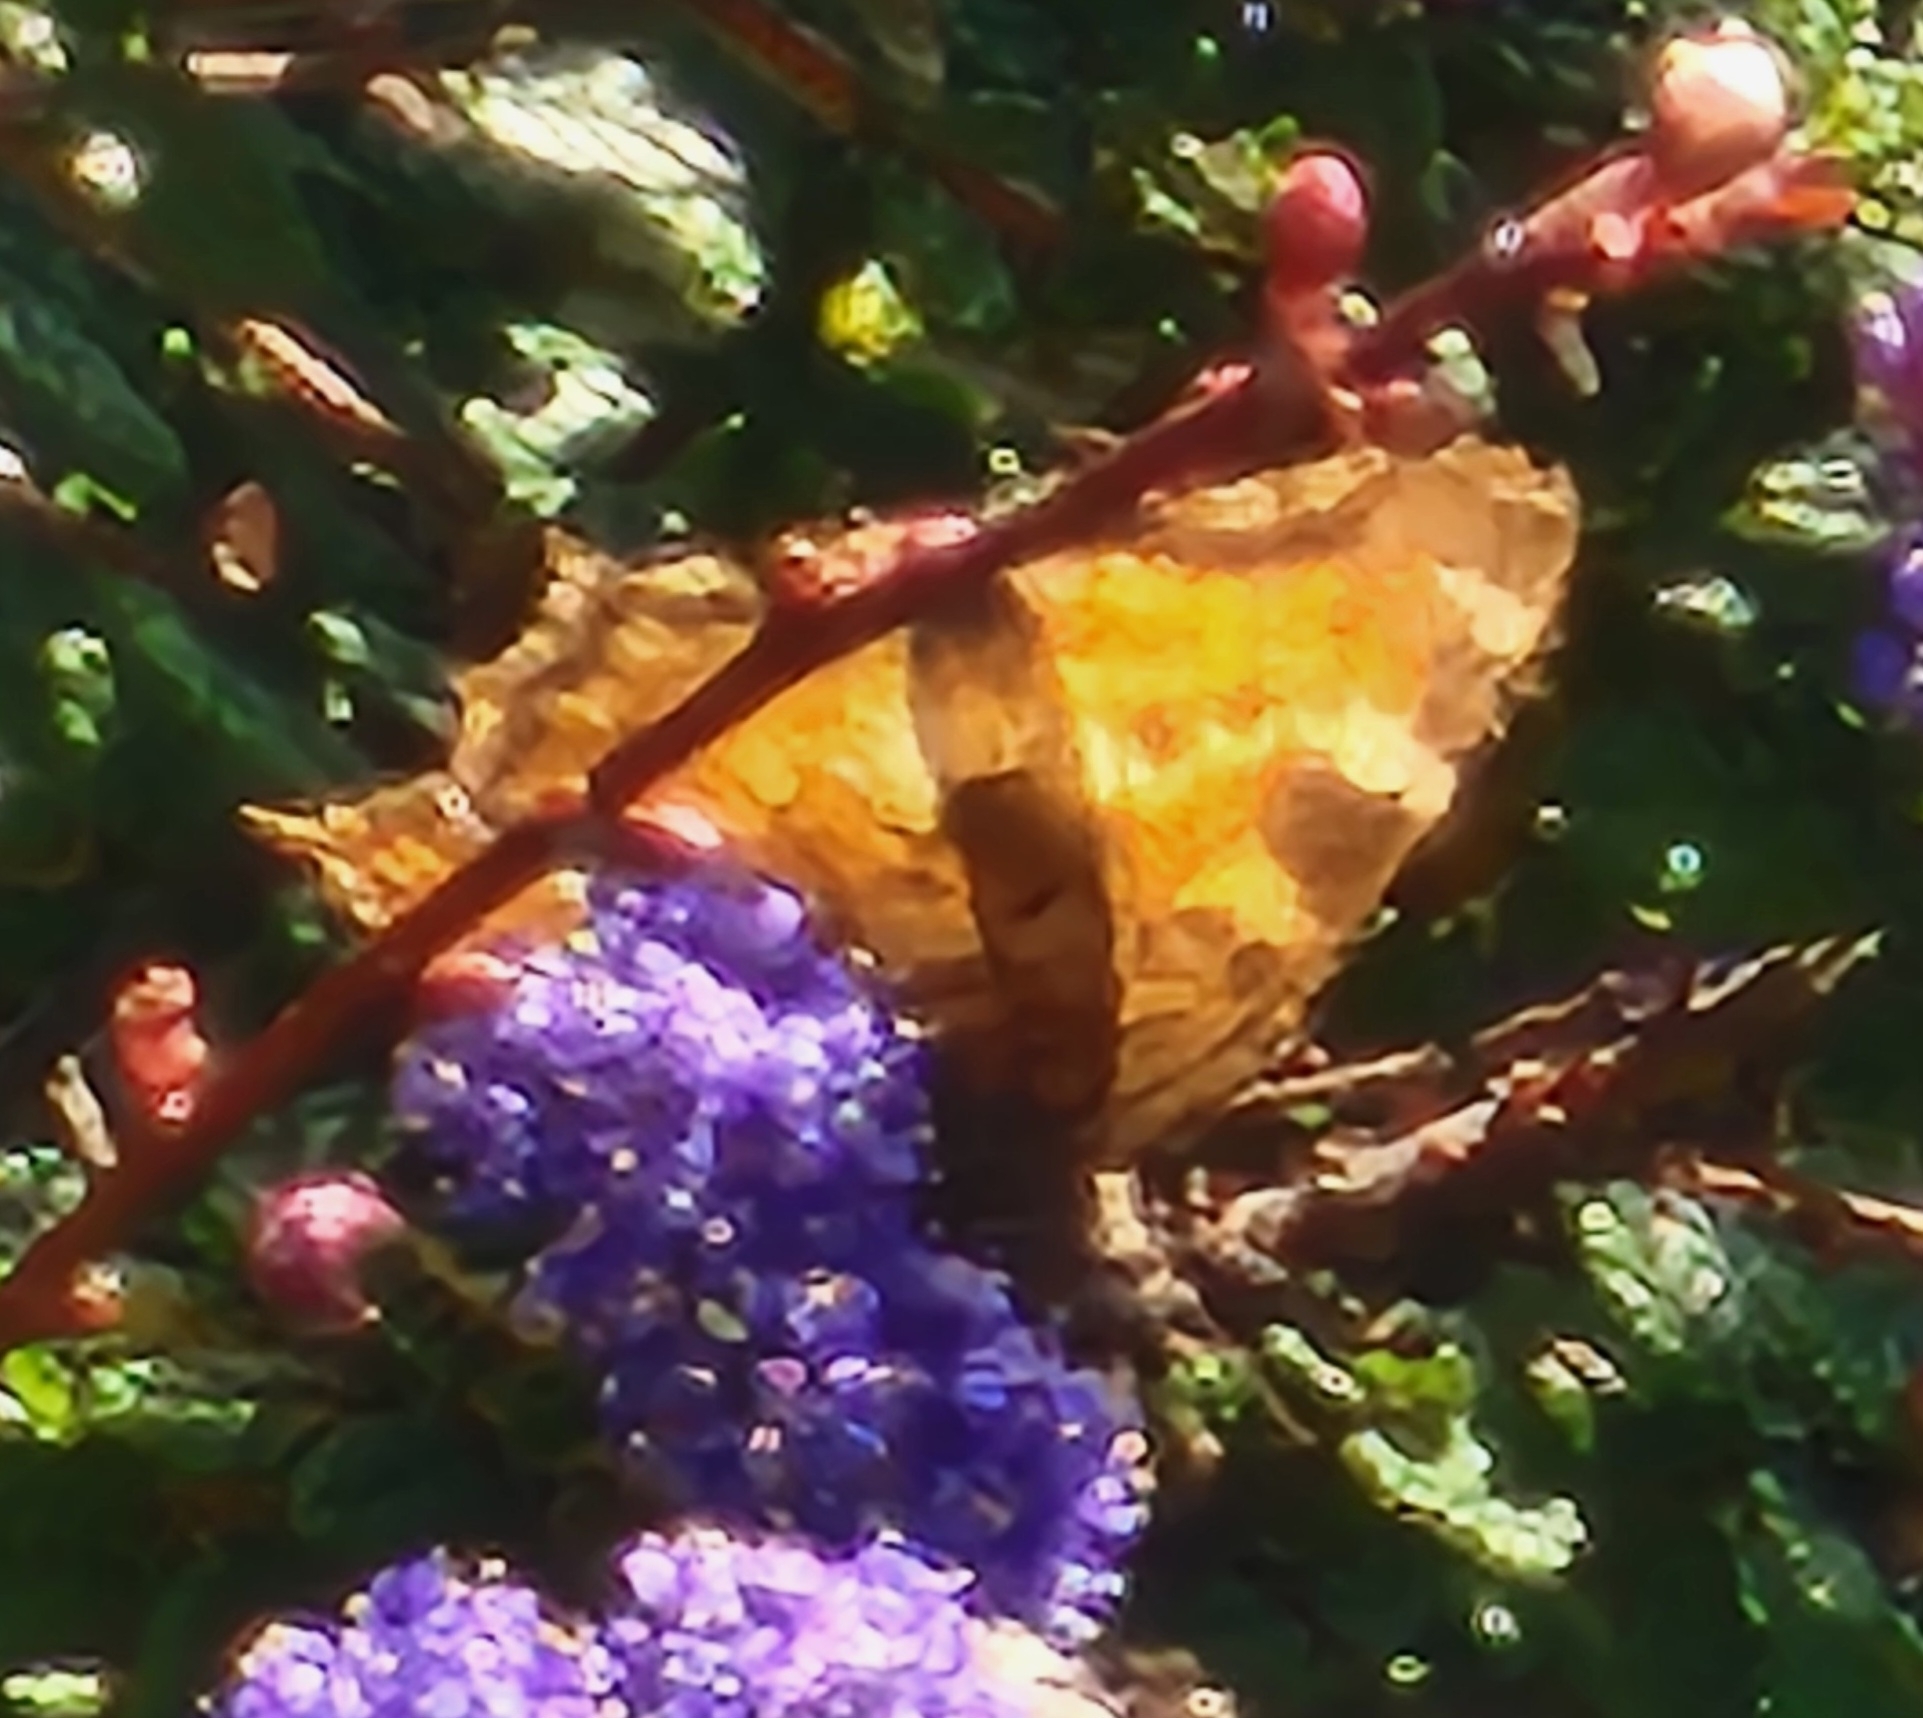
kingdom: Animalia
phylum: Arthropoda
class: Insecta
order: Lepidoptera
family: Nymphalidae
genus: Nymphalis
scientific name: Nymphalis californica
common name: California tortoiseshell
